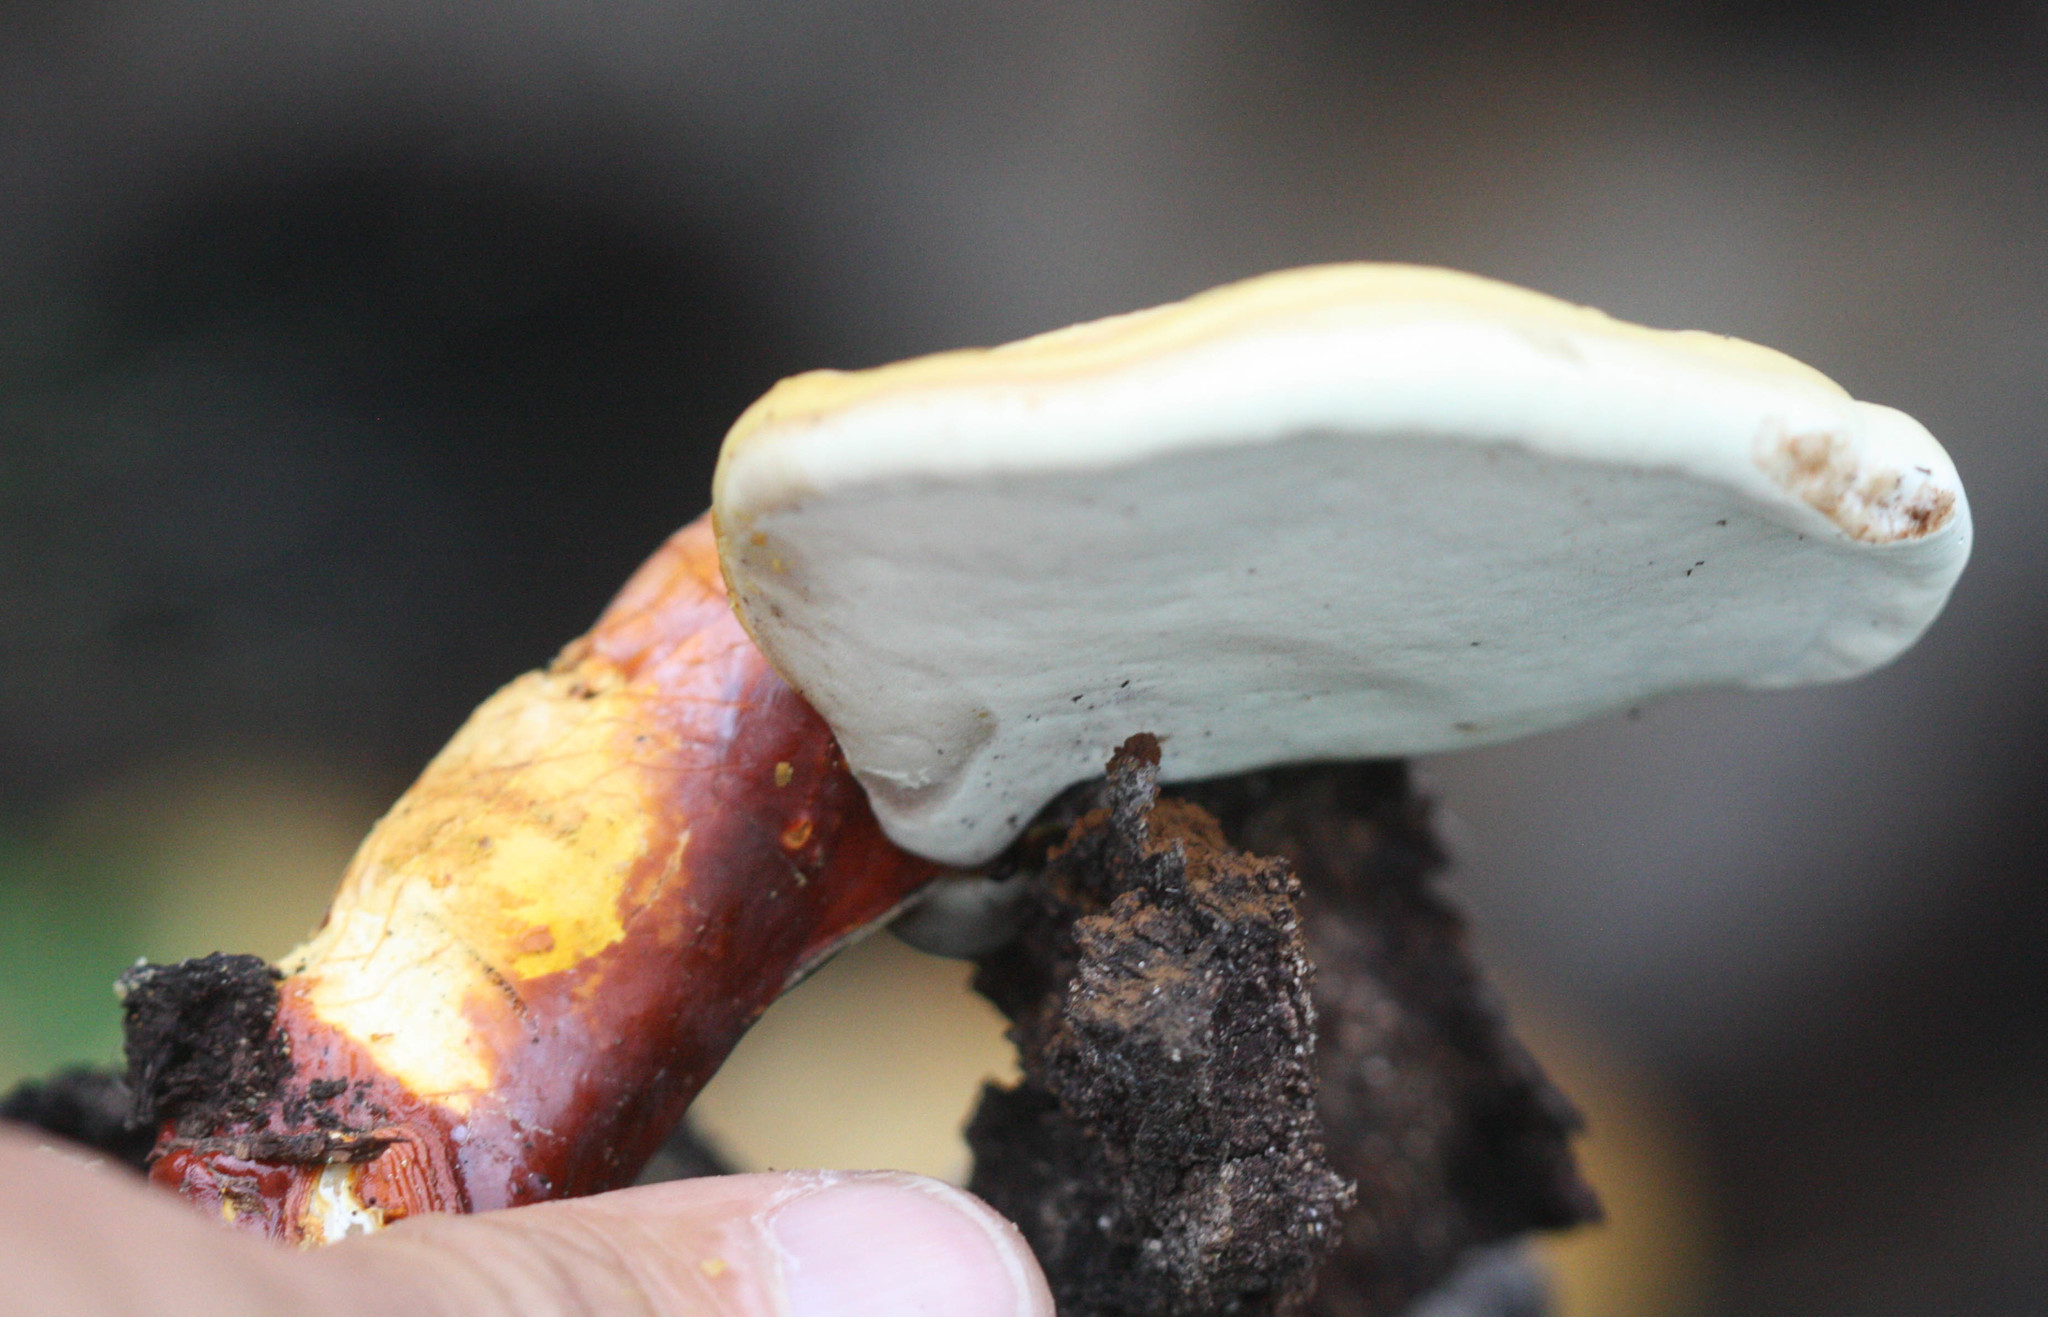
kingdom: Fungi
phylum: Basidiomycota
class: Agaricomycetes
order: Polyporales
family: Polyporaceae
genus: Ganoderma
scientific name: Ganoderma curtisii
